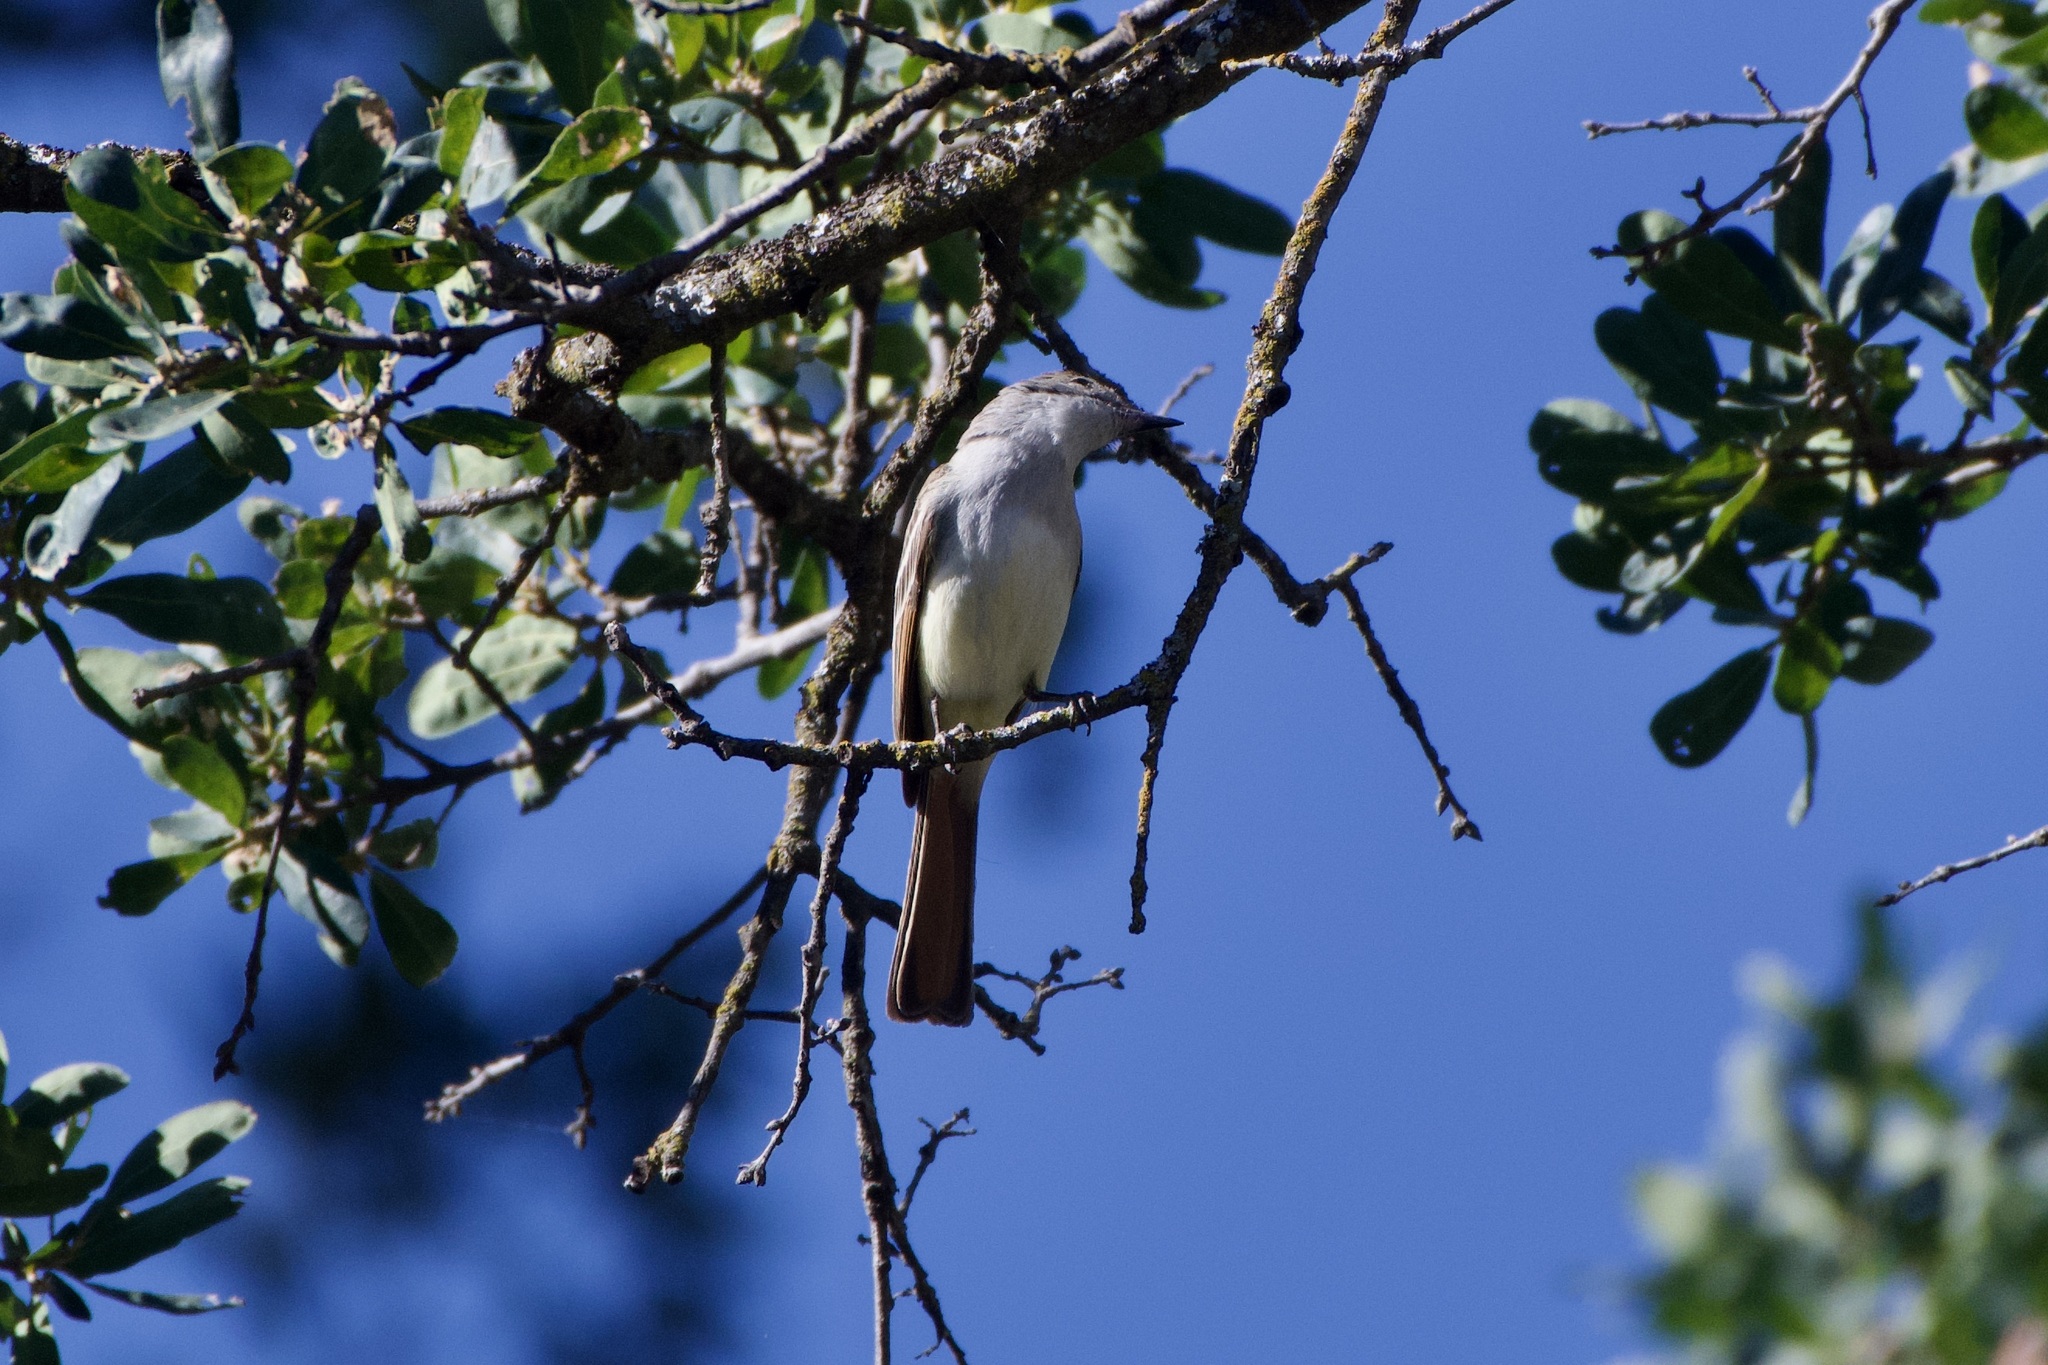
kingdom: Animalia
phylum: Chordata
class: Aves
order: Passeriformes
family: Tyrannidae
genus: Myiarchus
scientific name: Myiarchus cinerascens
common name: Ash-throated flycatcher
